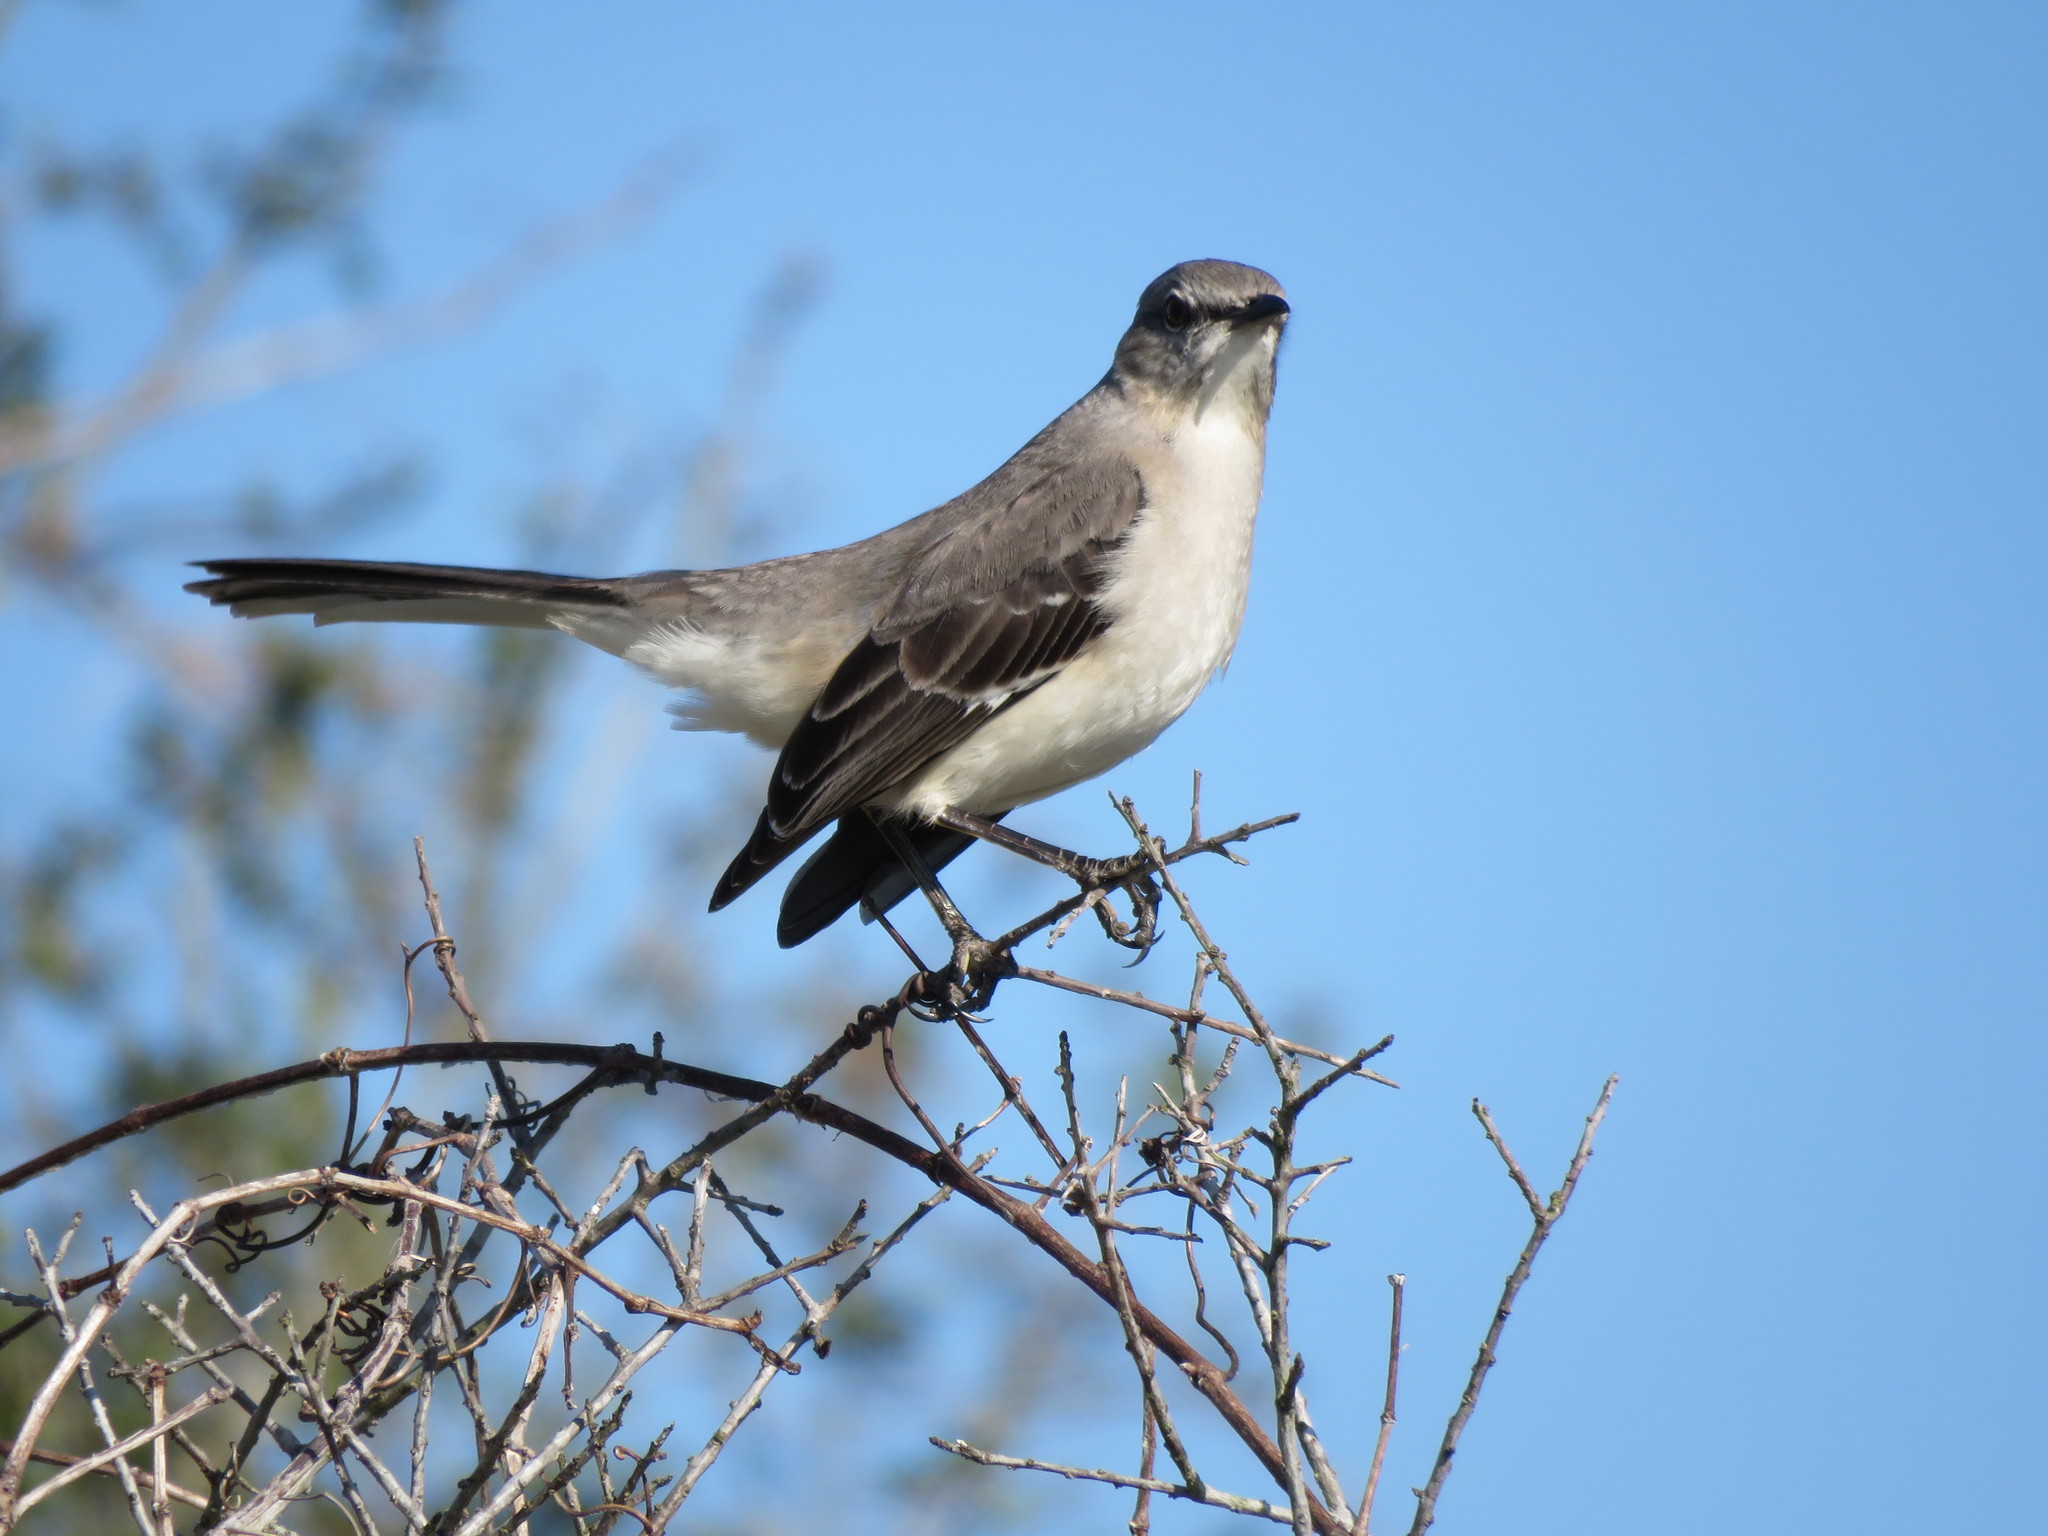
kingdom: Animalia
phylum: Chordata
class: Aves
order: Passeriformes
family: Mimidae
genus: Mimus
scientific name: Mimus polyglottos
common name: Northern mockingbird
